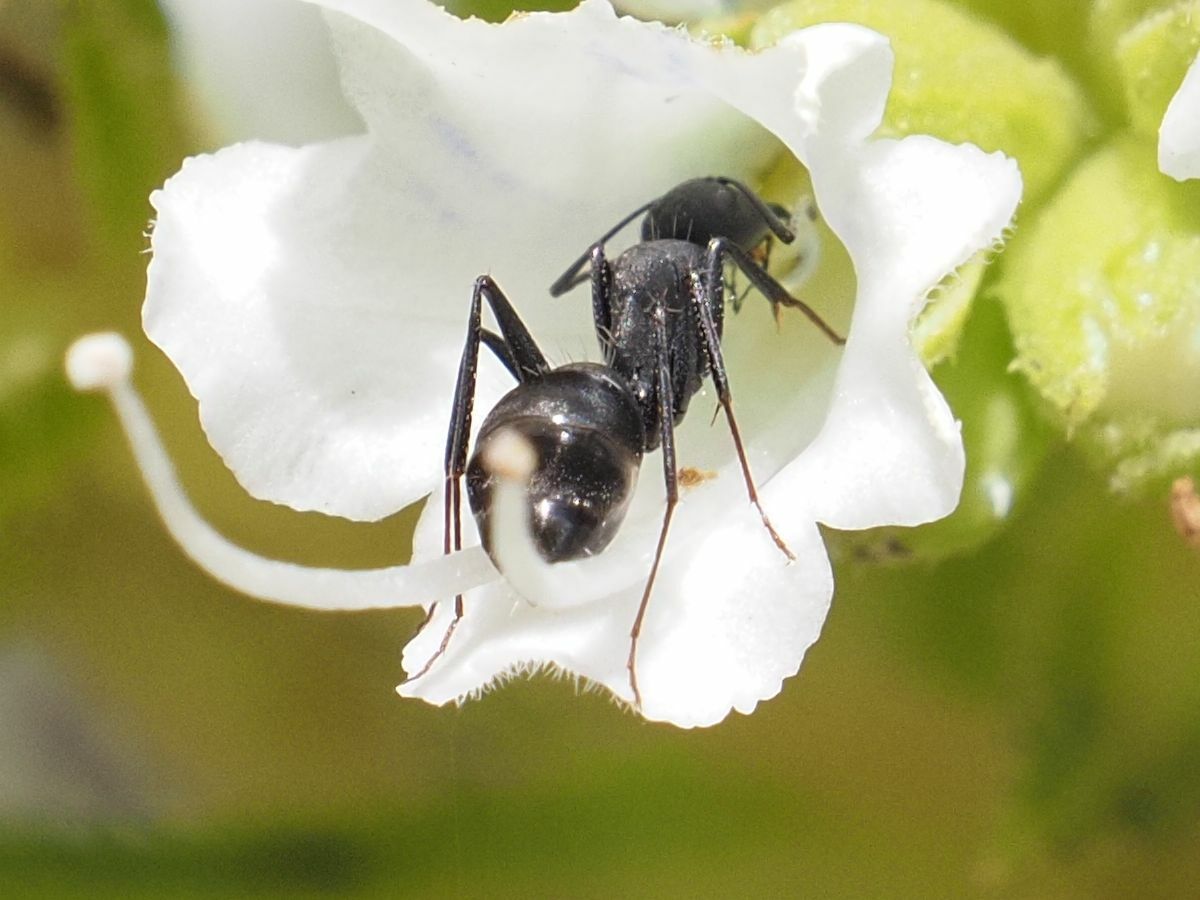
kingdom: Animalia
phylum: Arthropoda
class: Insecta
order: Hymenoptera
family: Formicidae
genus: Camponotus
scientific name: Camponotus feai
